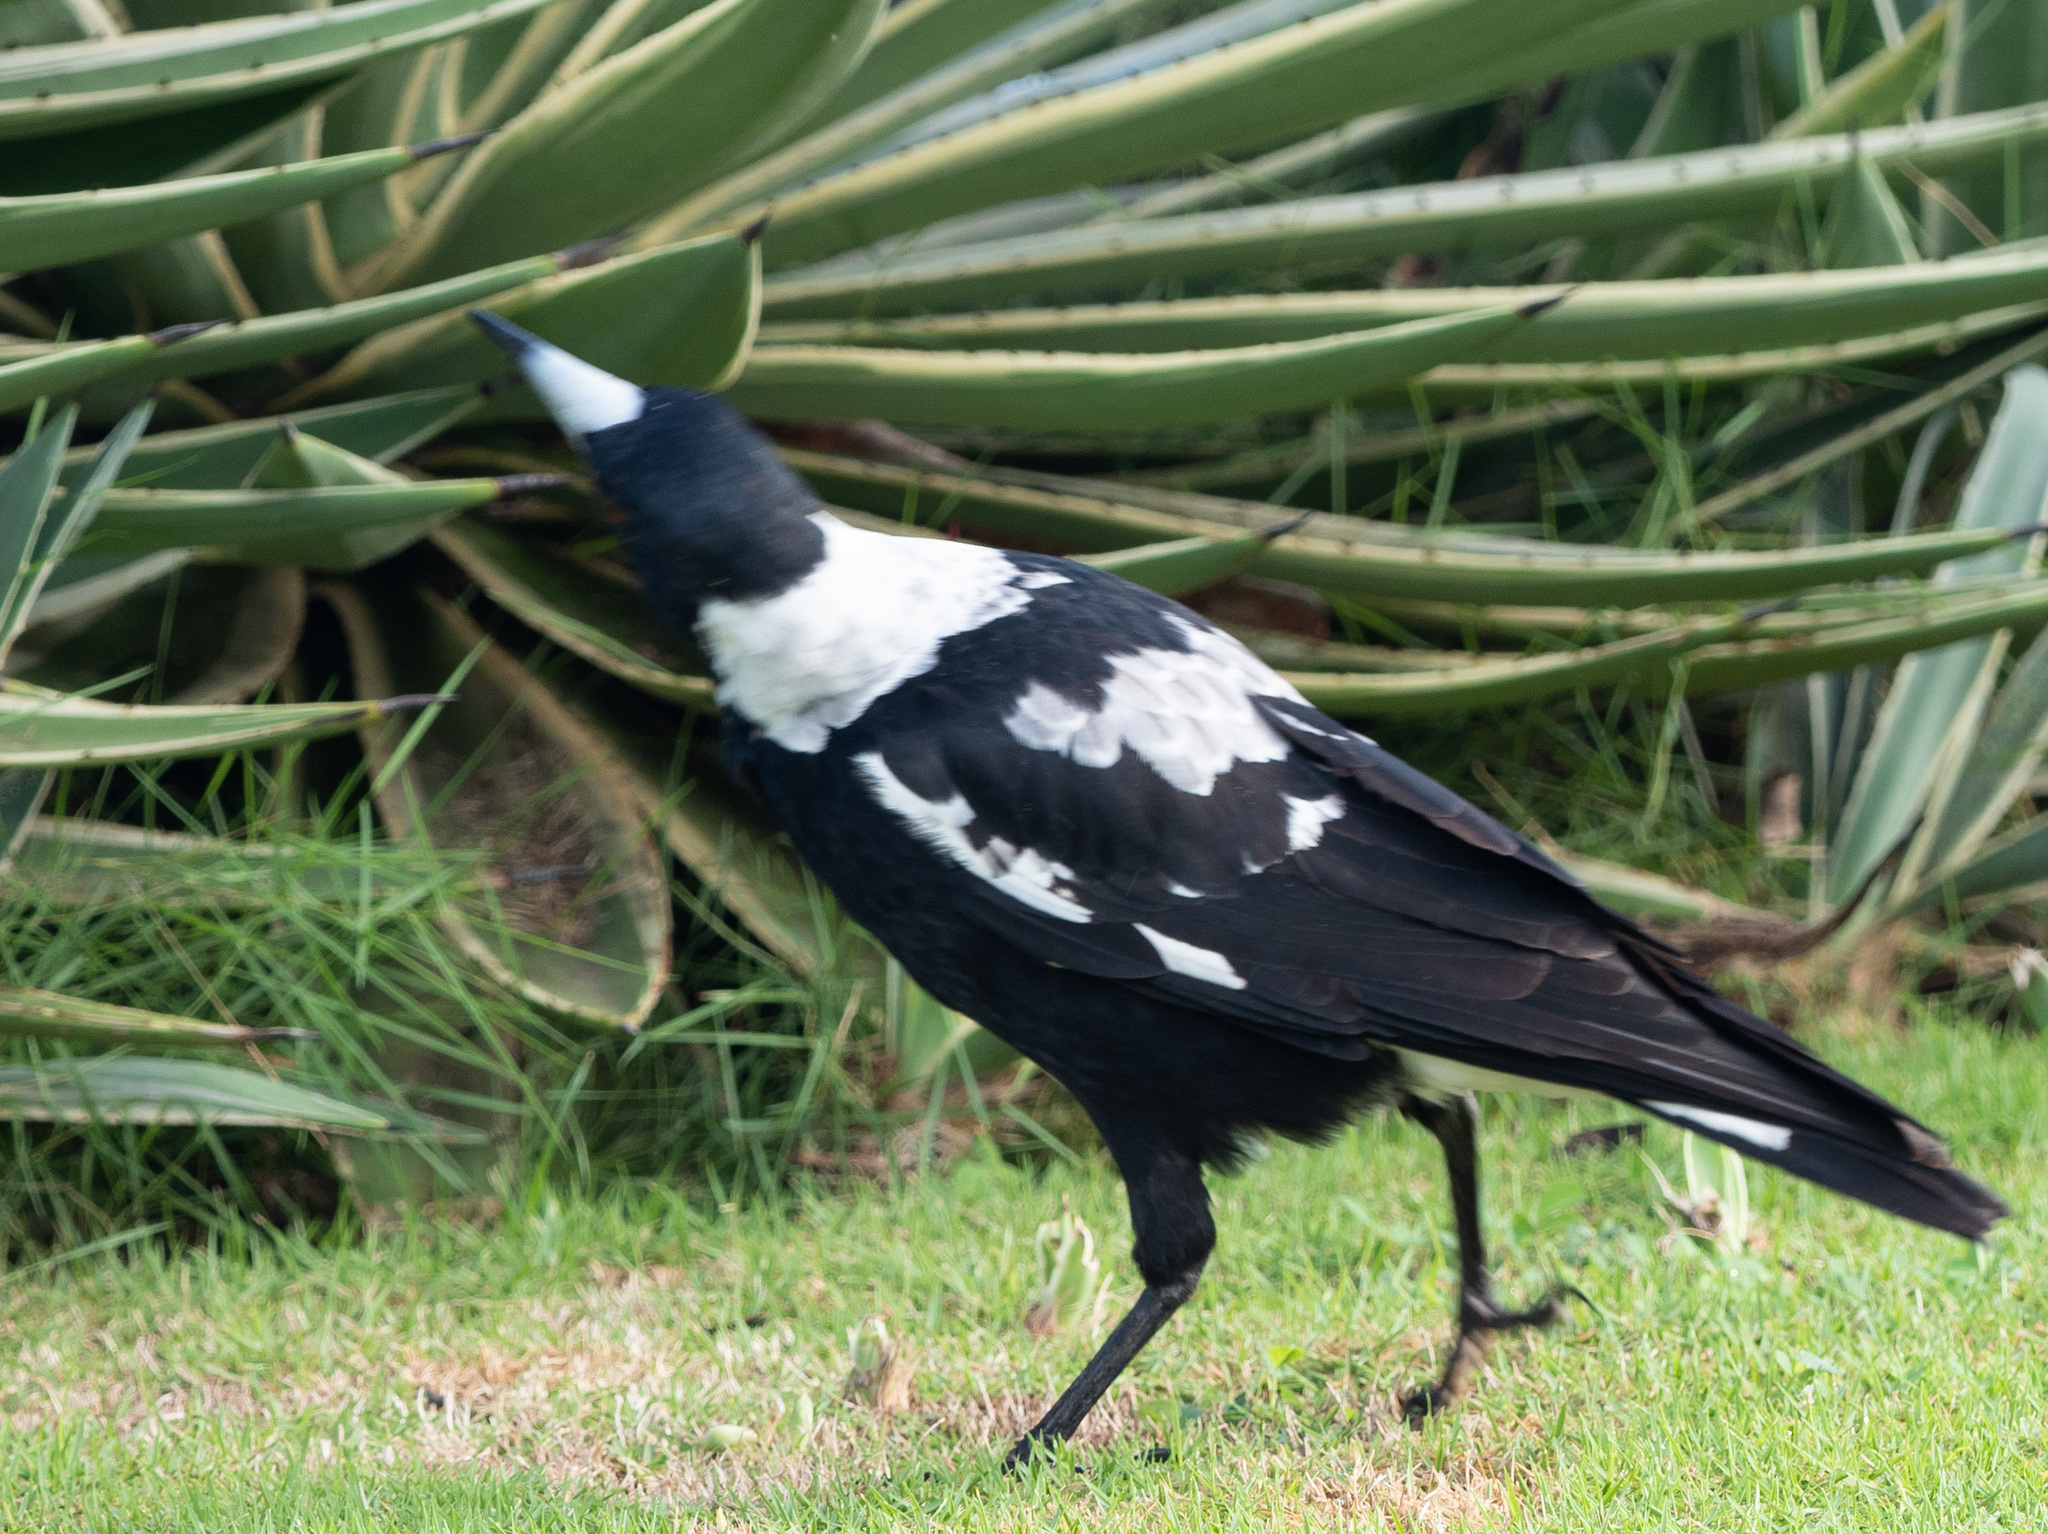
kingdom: Animalia
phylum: Chordata
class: Aves
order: Passeriformes
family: Cracticidae
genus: Gymnorhina
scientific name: Gymnorhina tibicen
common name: Australian magpie
